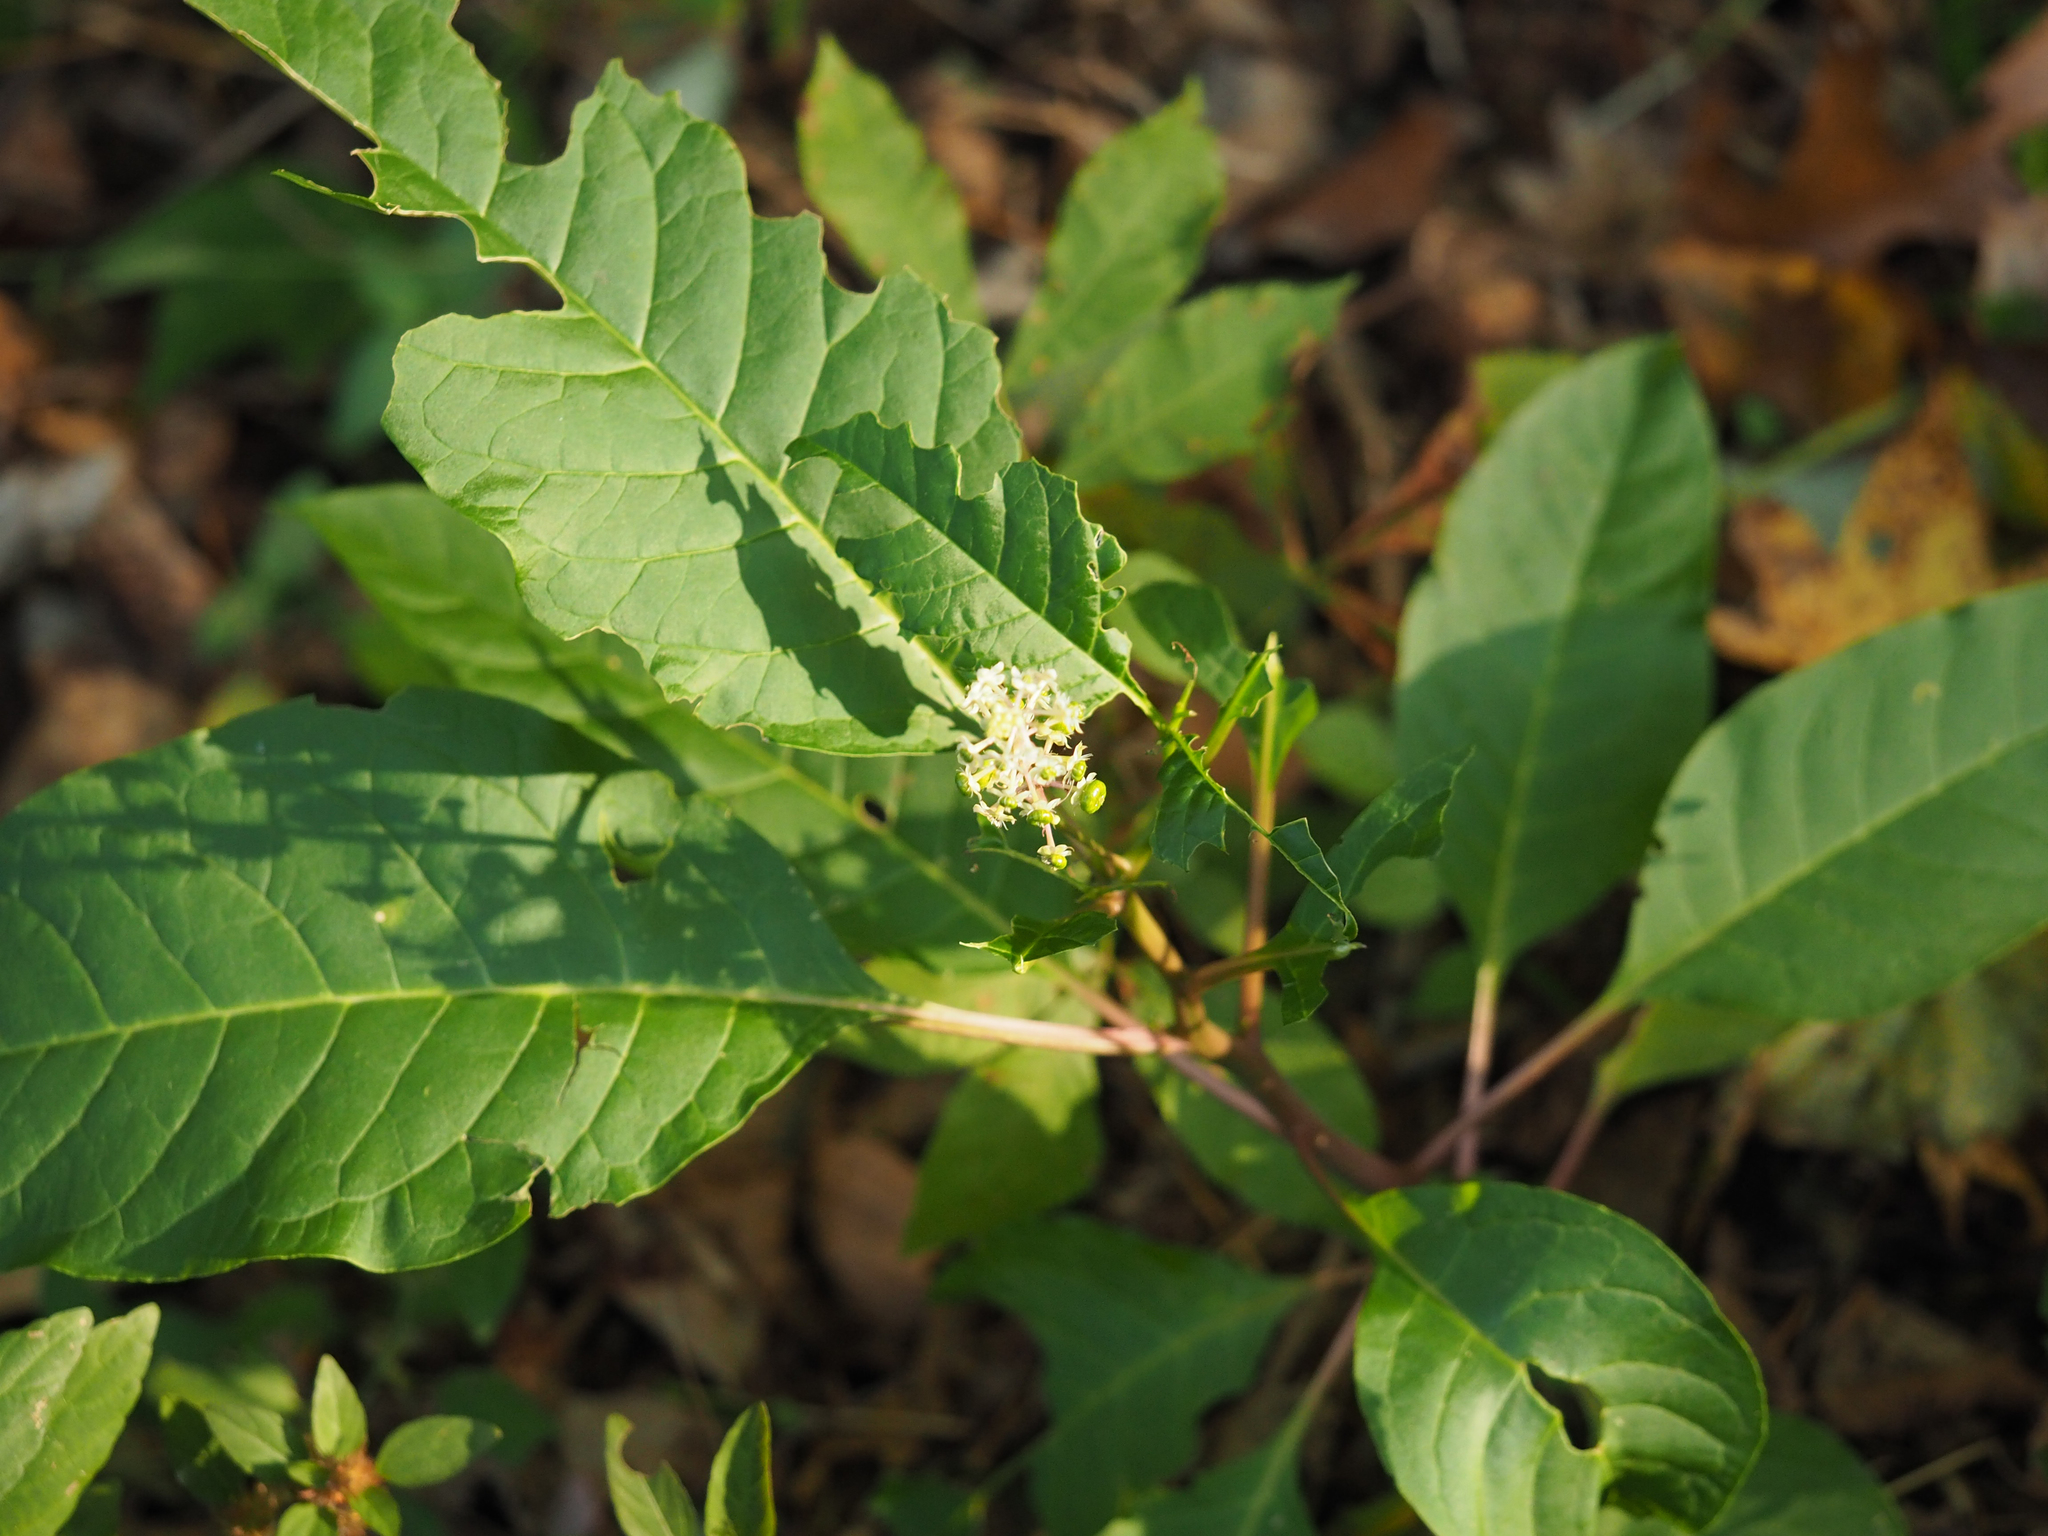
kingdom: Plantae
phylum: Tracheophyta
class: Magnoliopsida
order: Caryophyllales
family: Phytolaccaceae
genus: Phytolacca
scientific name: Phytolacca americana
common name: American pokeweed
